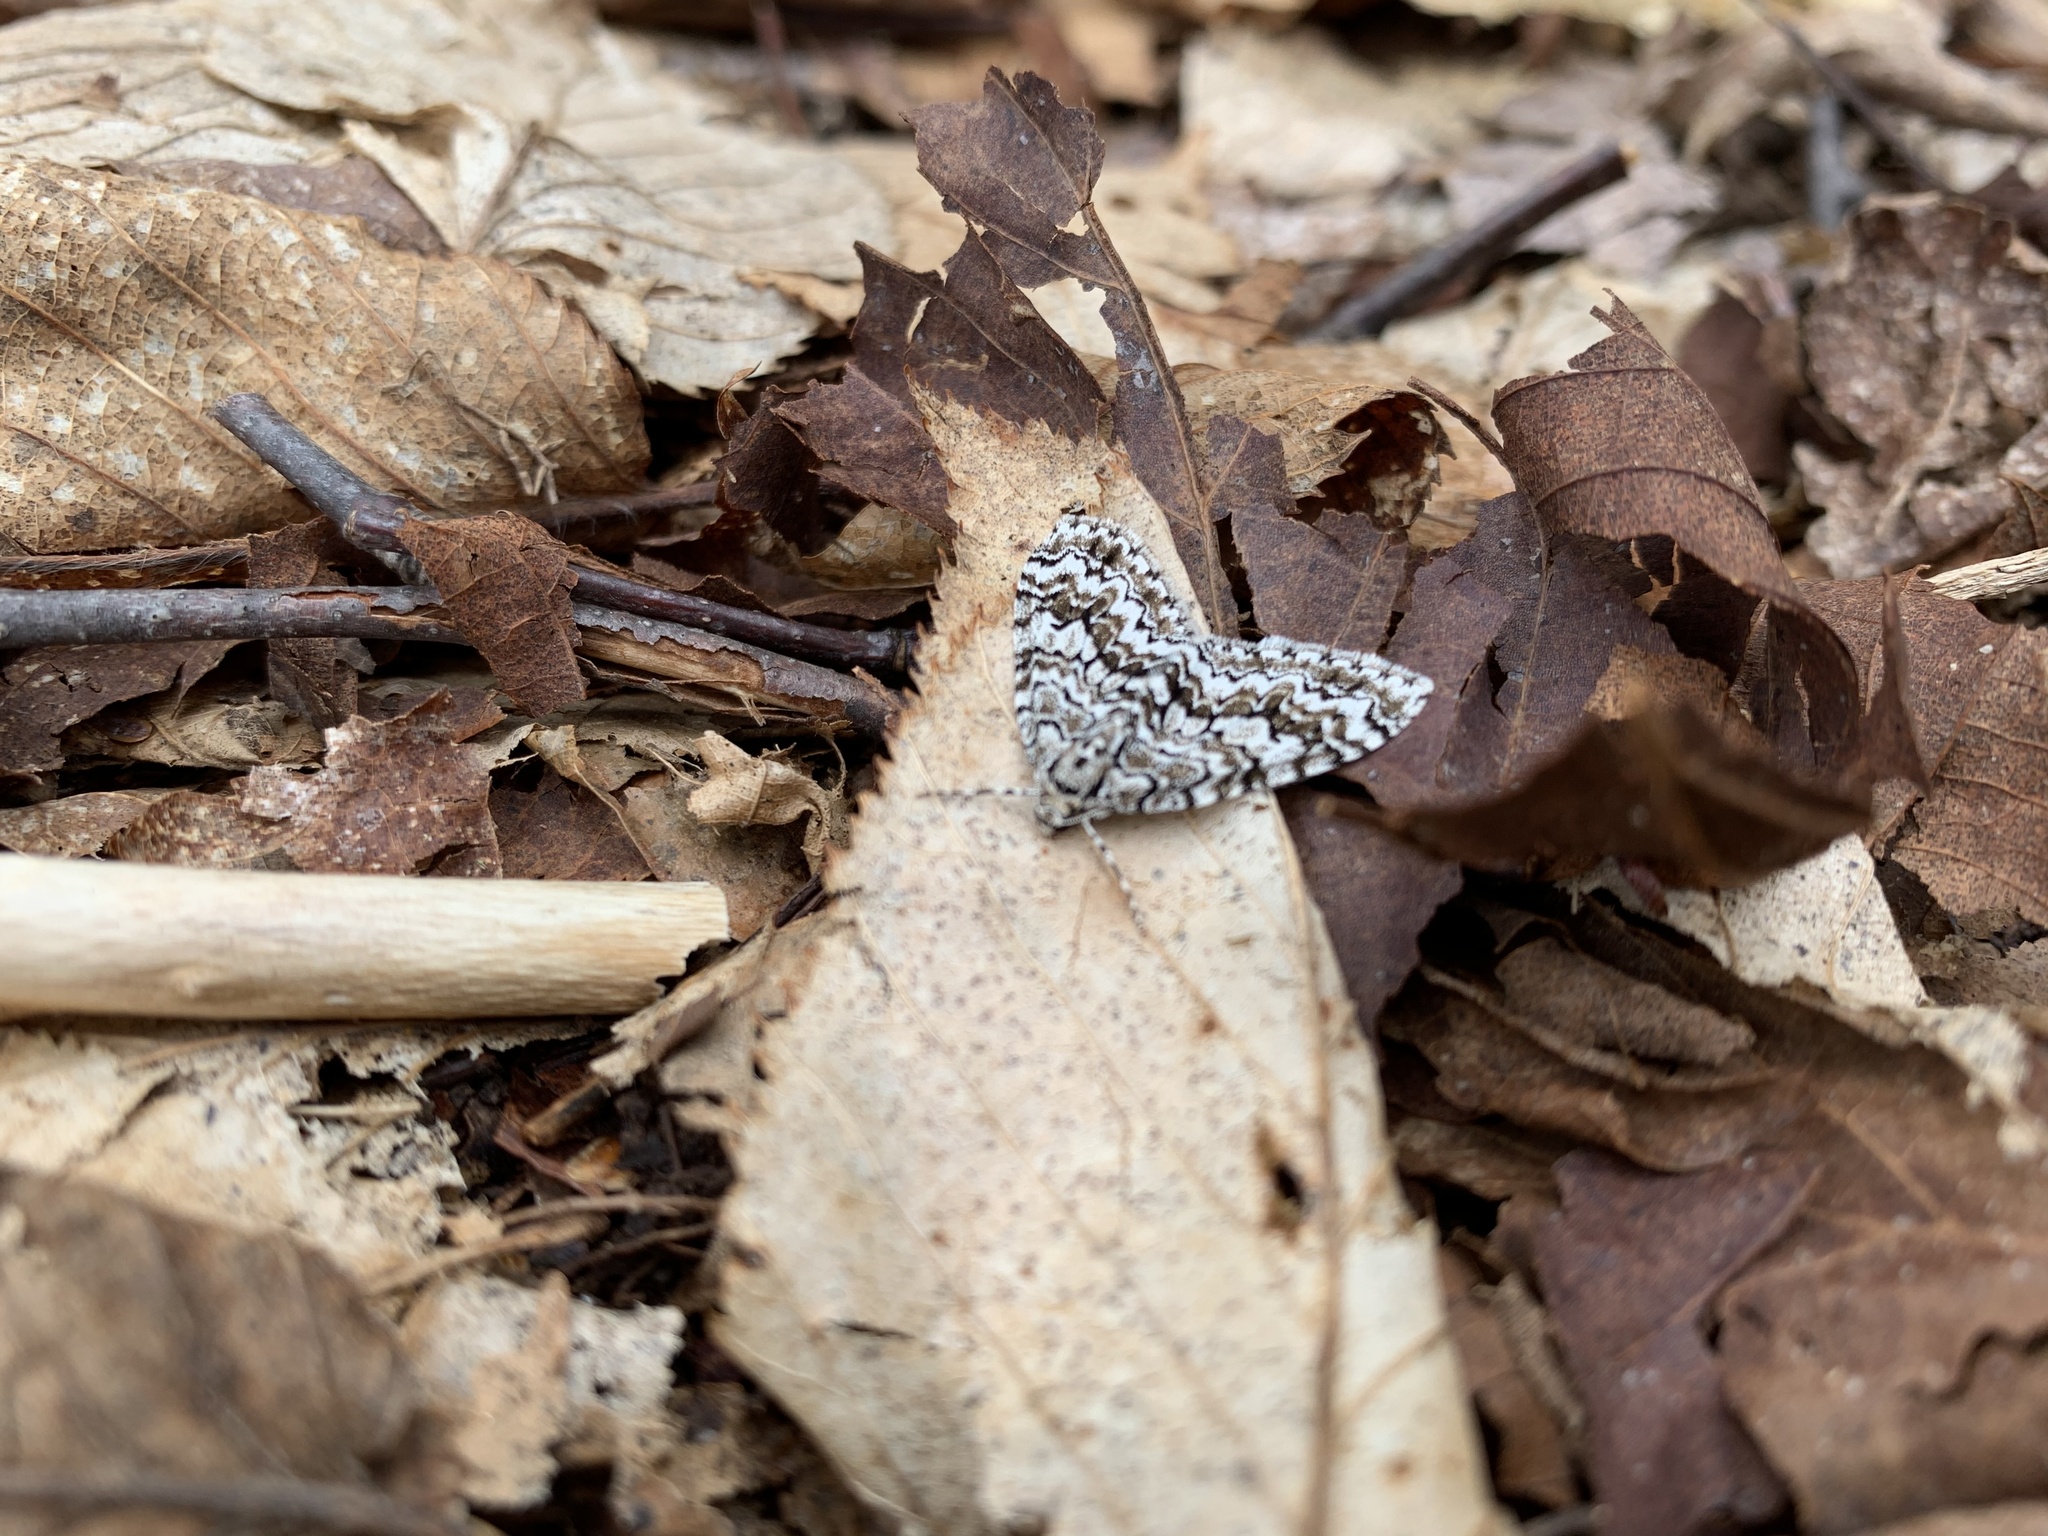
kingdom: Animalia
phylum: Arthropoda
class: Insecta
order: Lepidoptera
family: Geometridae
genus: Cladara
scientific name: Cladara atroliturata
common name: Scribbler
